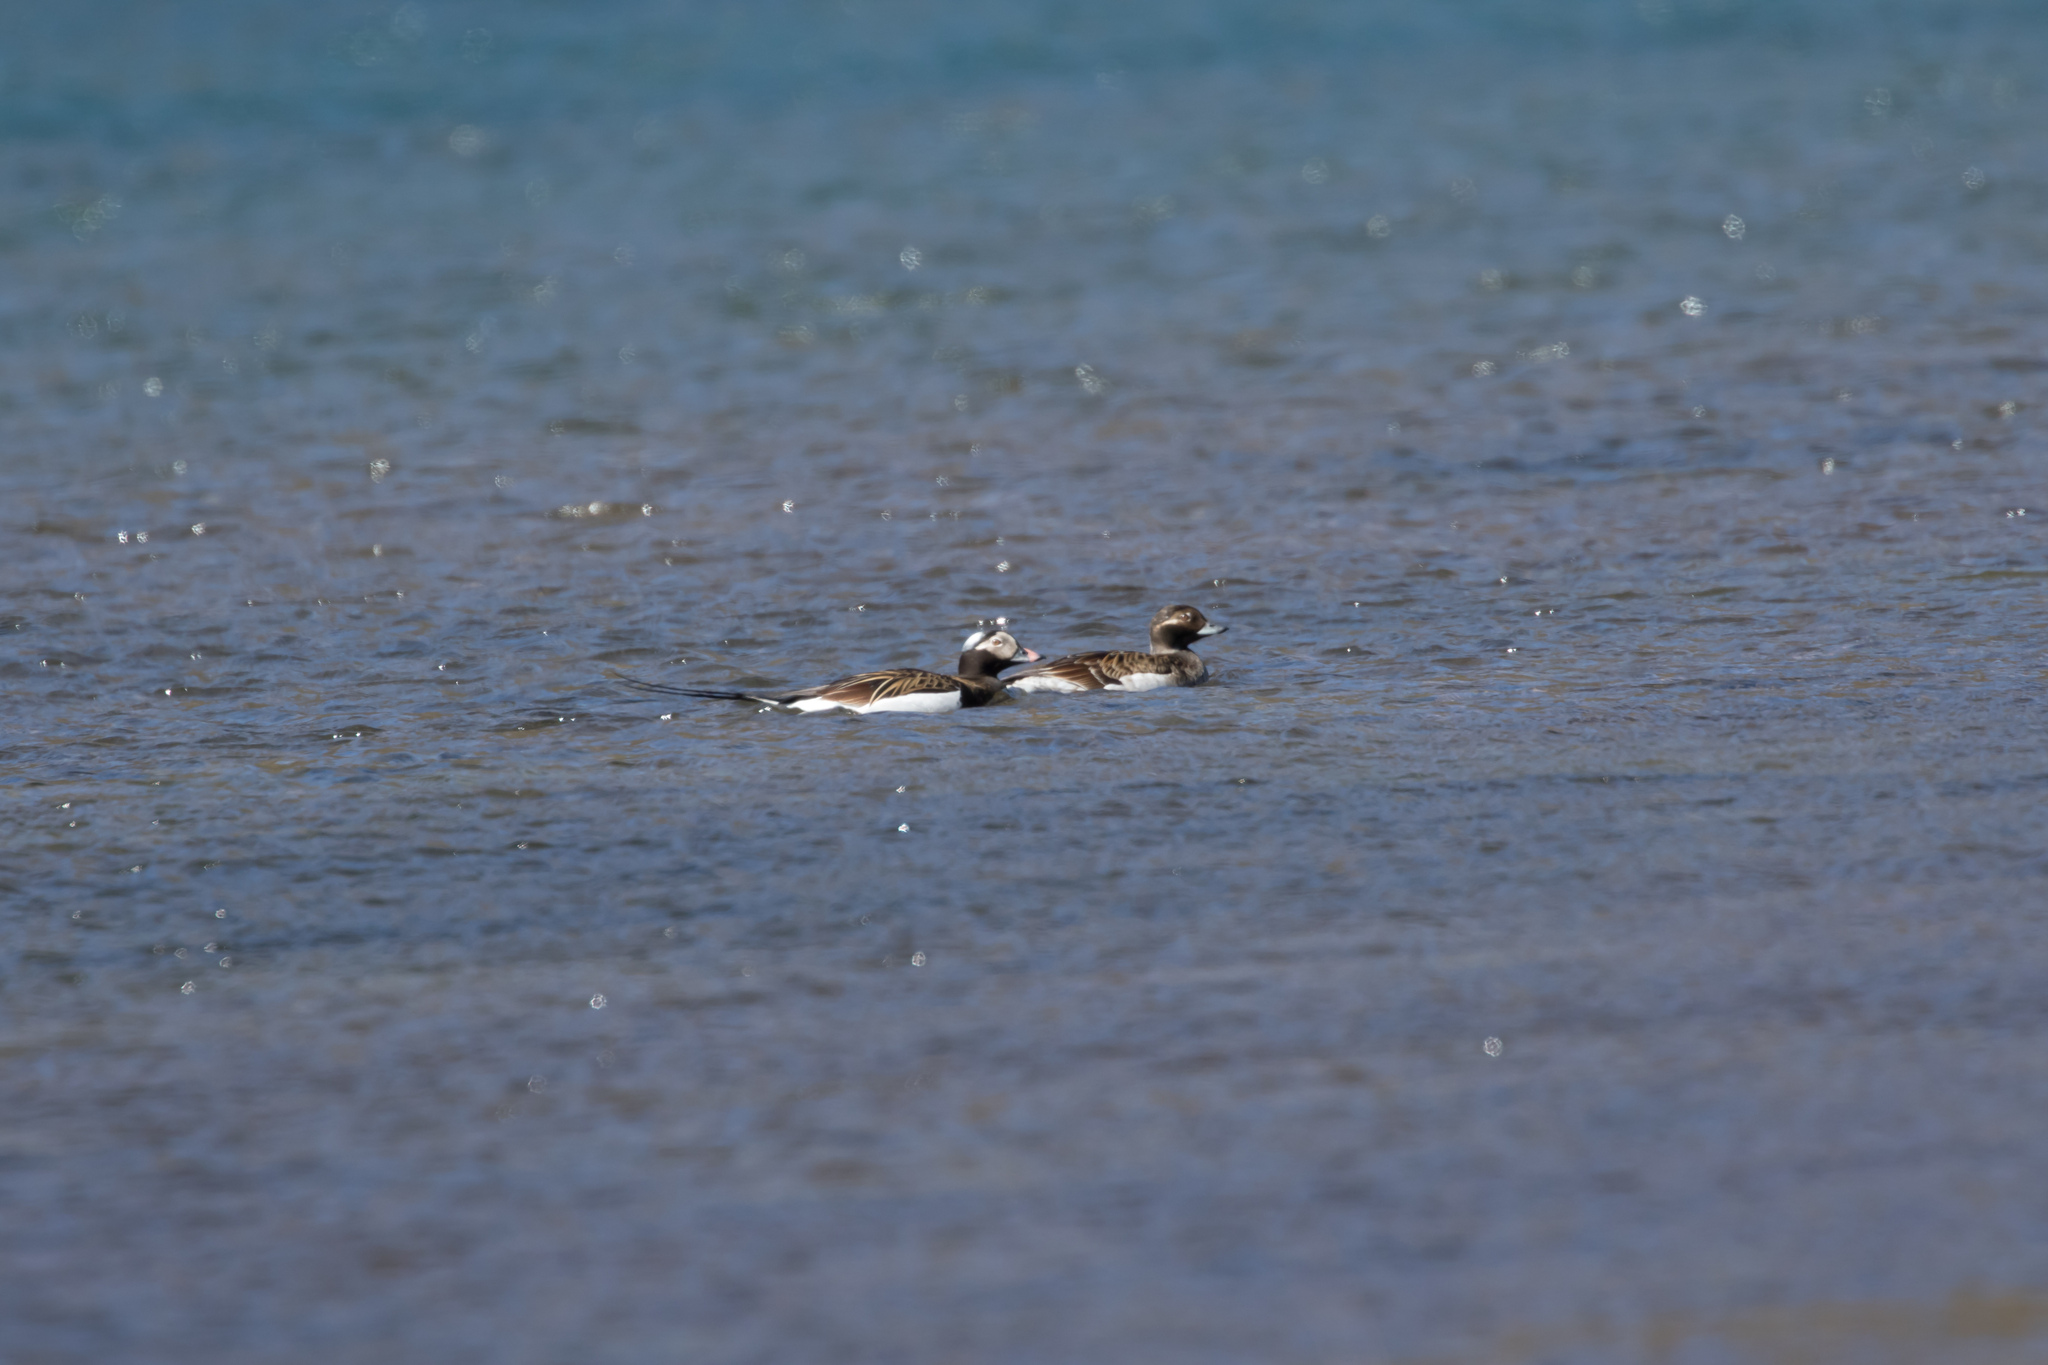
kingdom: Animalia
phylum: Chordata
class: Aves
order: Anseriformes
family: Anatidae
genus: Clangula
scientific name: Clangula hyemalis
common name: Long-tailed duck
